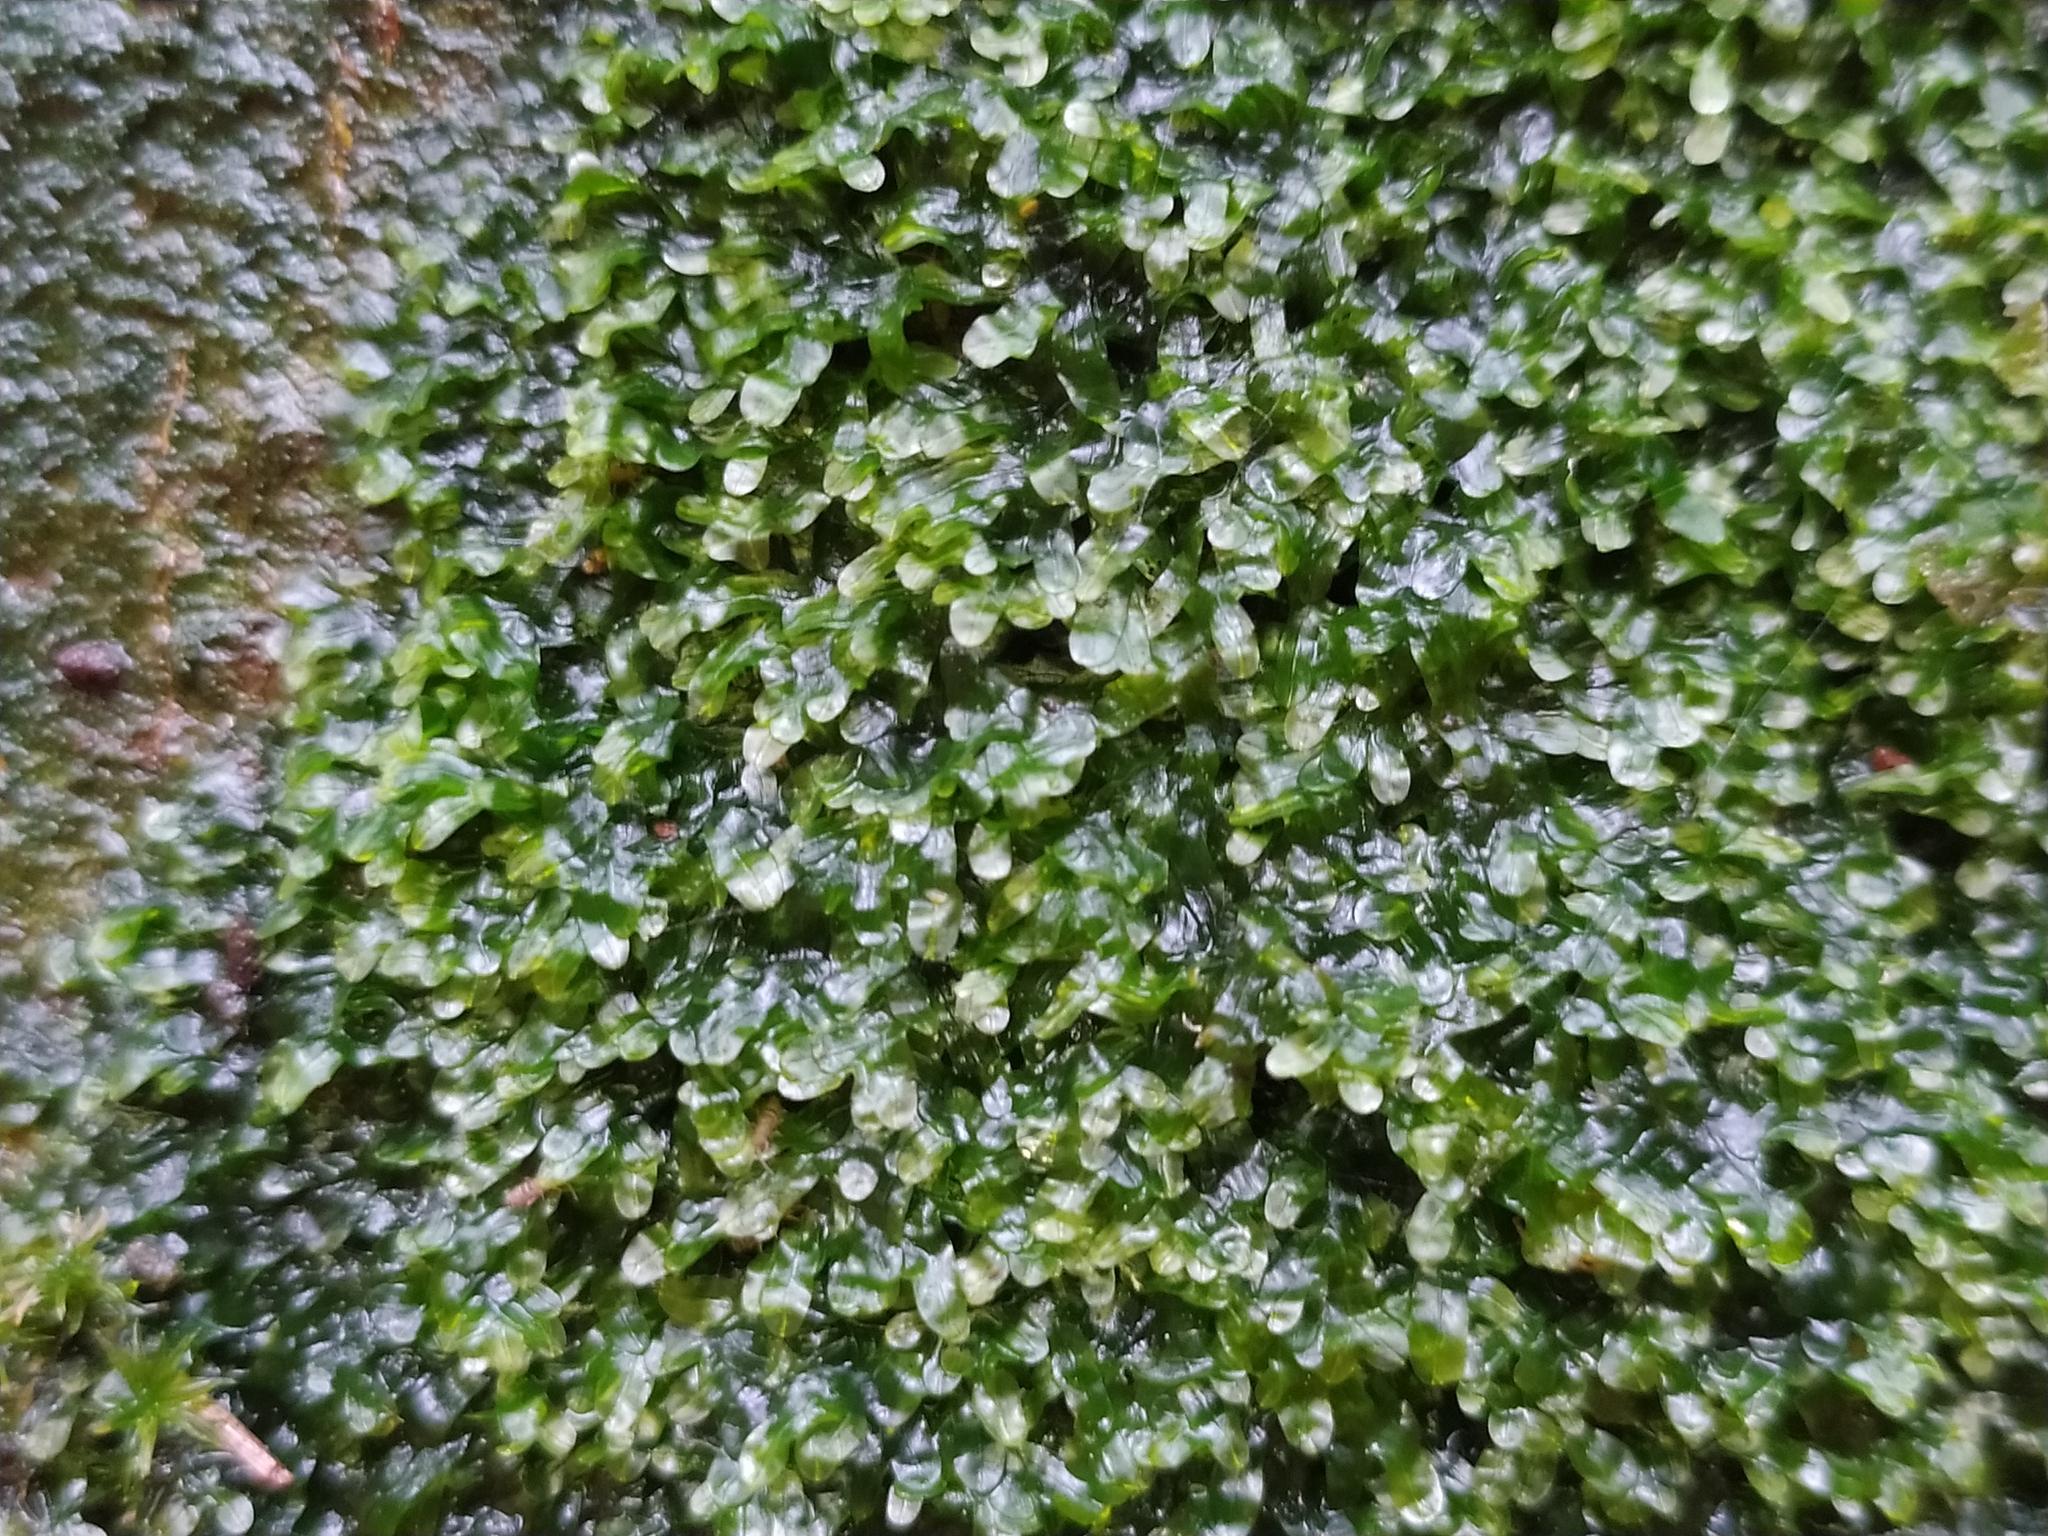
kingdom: Plantae
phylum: Marchantiophyta
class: Jungermanniopsida
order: Metzgeriales
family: Metzgeriaceae
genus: Metzgeria
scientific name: Metzgeria furcata
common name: Forked veilwort
